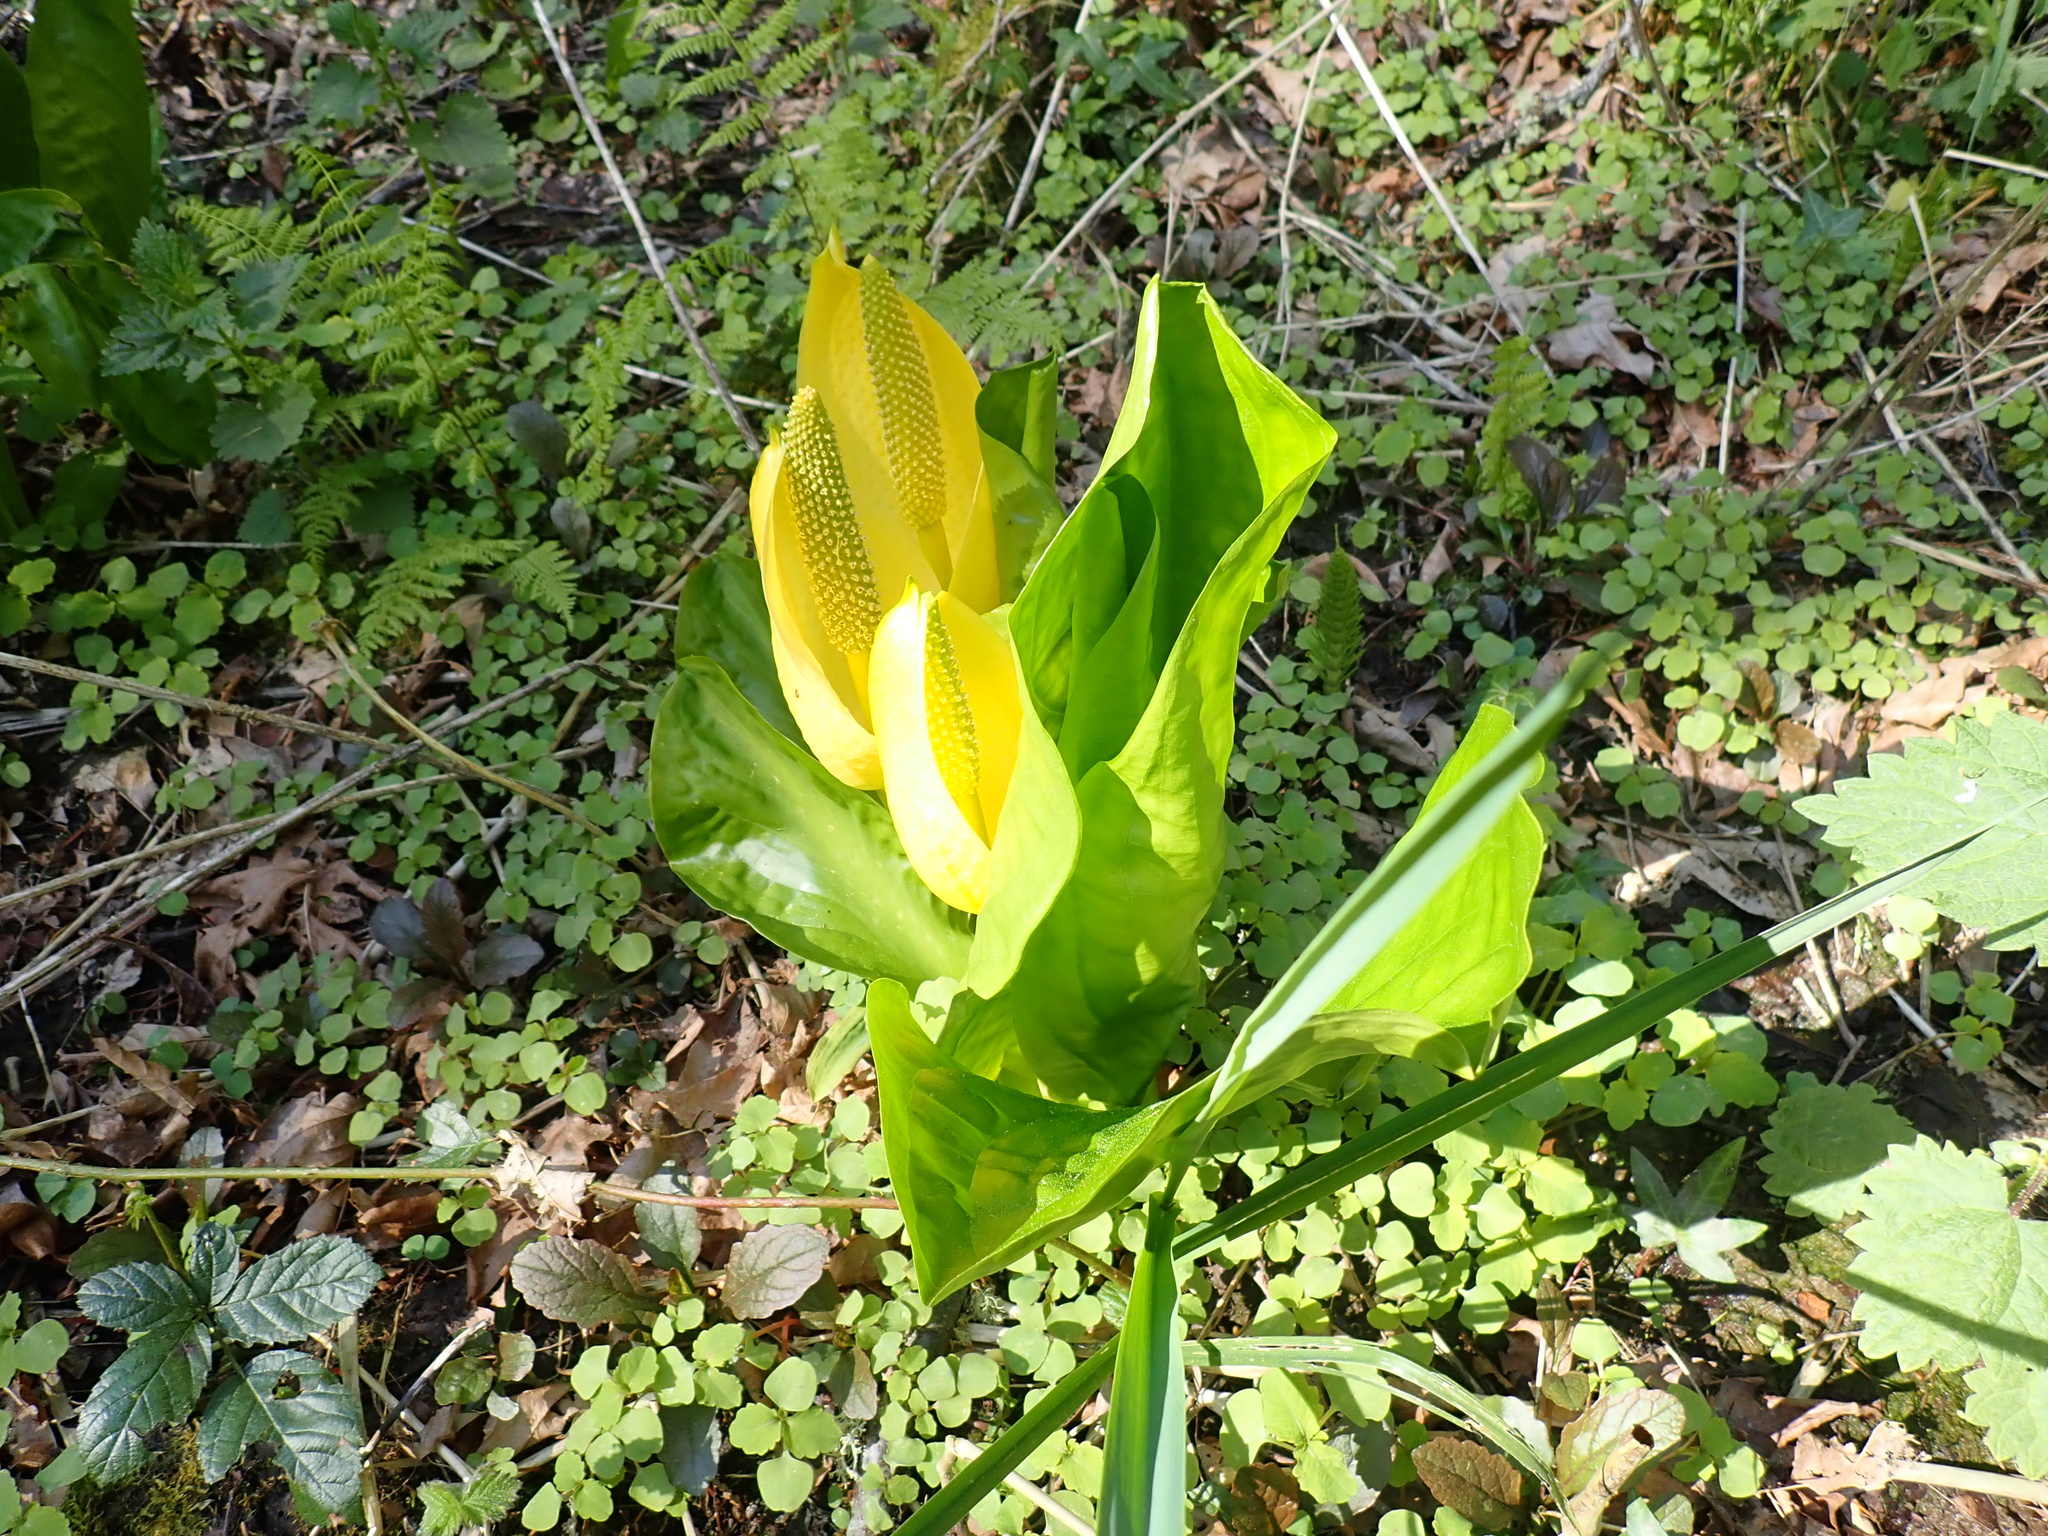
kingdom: Plantae
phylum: Tracheophyta
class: Liliopsida
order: Alismatales
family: Araceae
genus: Lysichiton
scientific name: Lysichiton americanus
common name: American skunk cabbage
